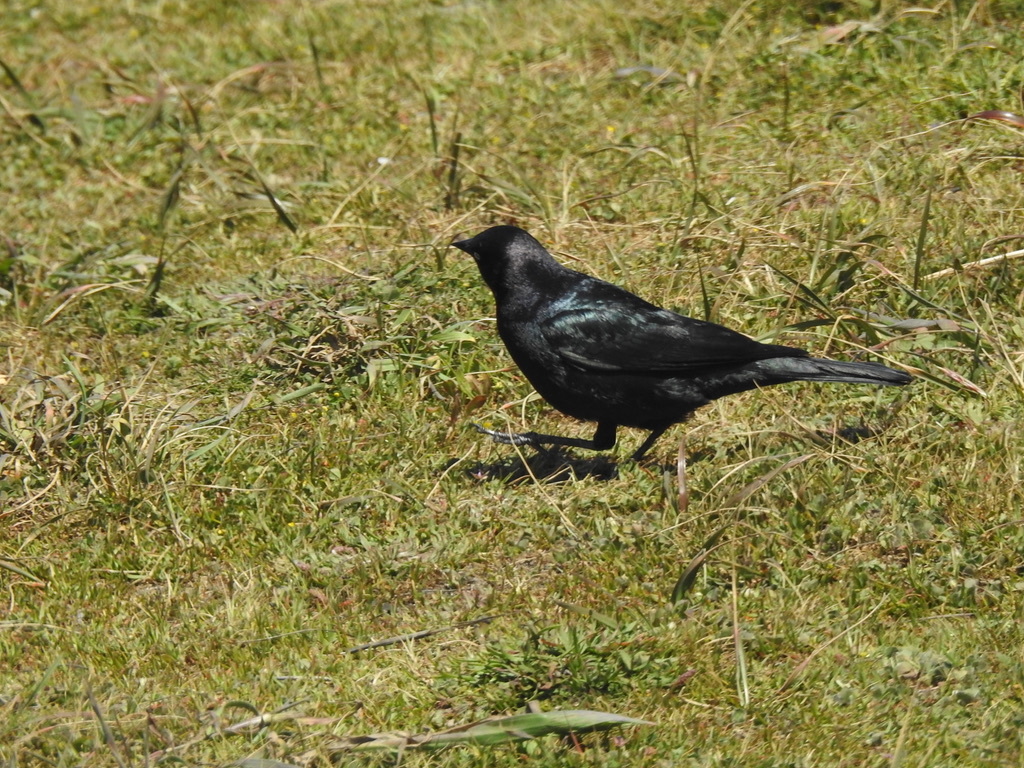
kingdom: Animalia
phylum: Chordata
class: Aves
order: Passeriformes
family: Icteridae
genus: Euphagus
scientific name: Euphagus cyanocephalus
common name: Brewer's blackbird
